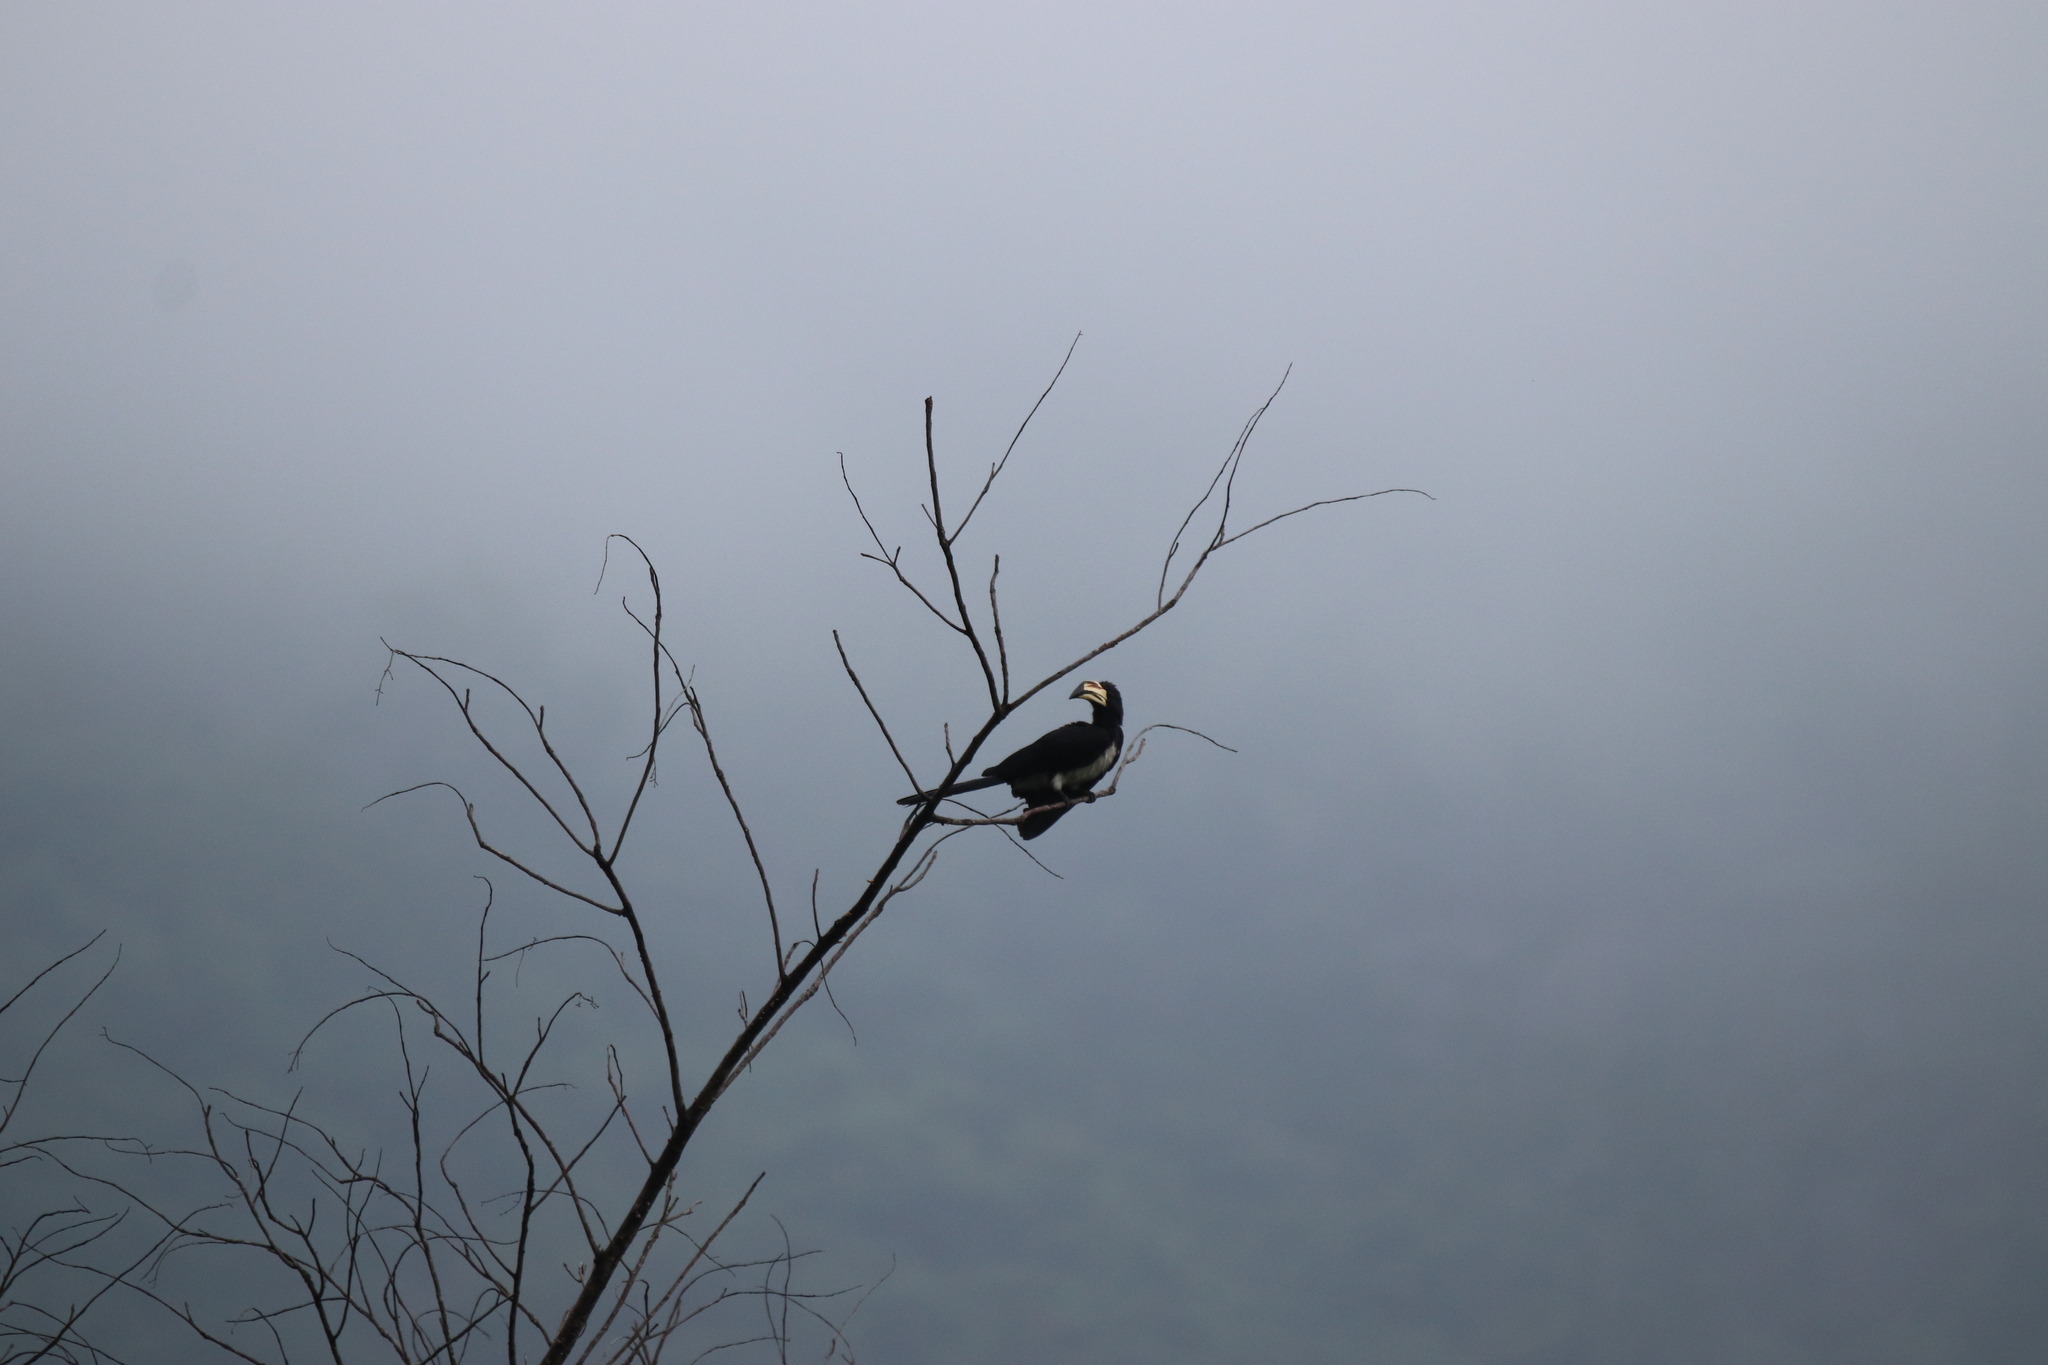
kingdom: Animalia
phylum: Chordata
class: Aves
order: Bucerotiformes
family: Bucerotidae
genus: Lophoceros
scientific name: Lophoceros fasciatus
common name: African pied hornbill
